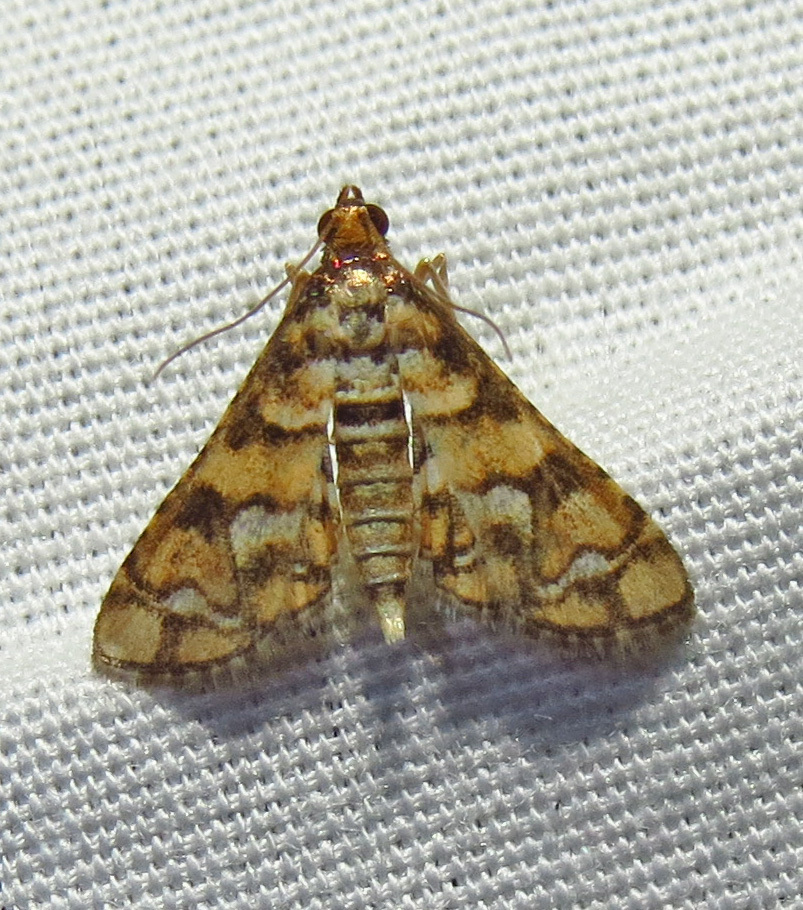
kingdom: Animalia
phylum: Arthropoda
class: Insecta
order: Lepidoptera
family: Crambidae
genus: Hileithia
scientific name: Hileithia magualis
